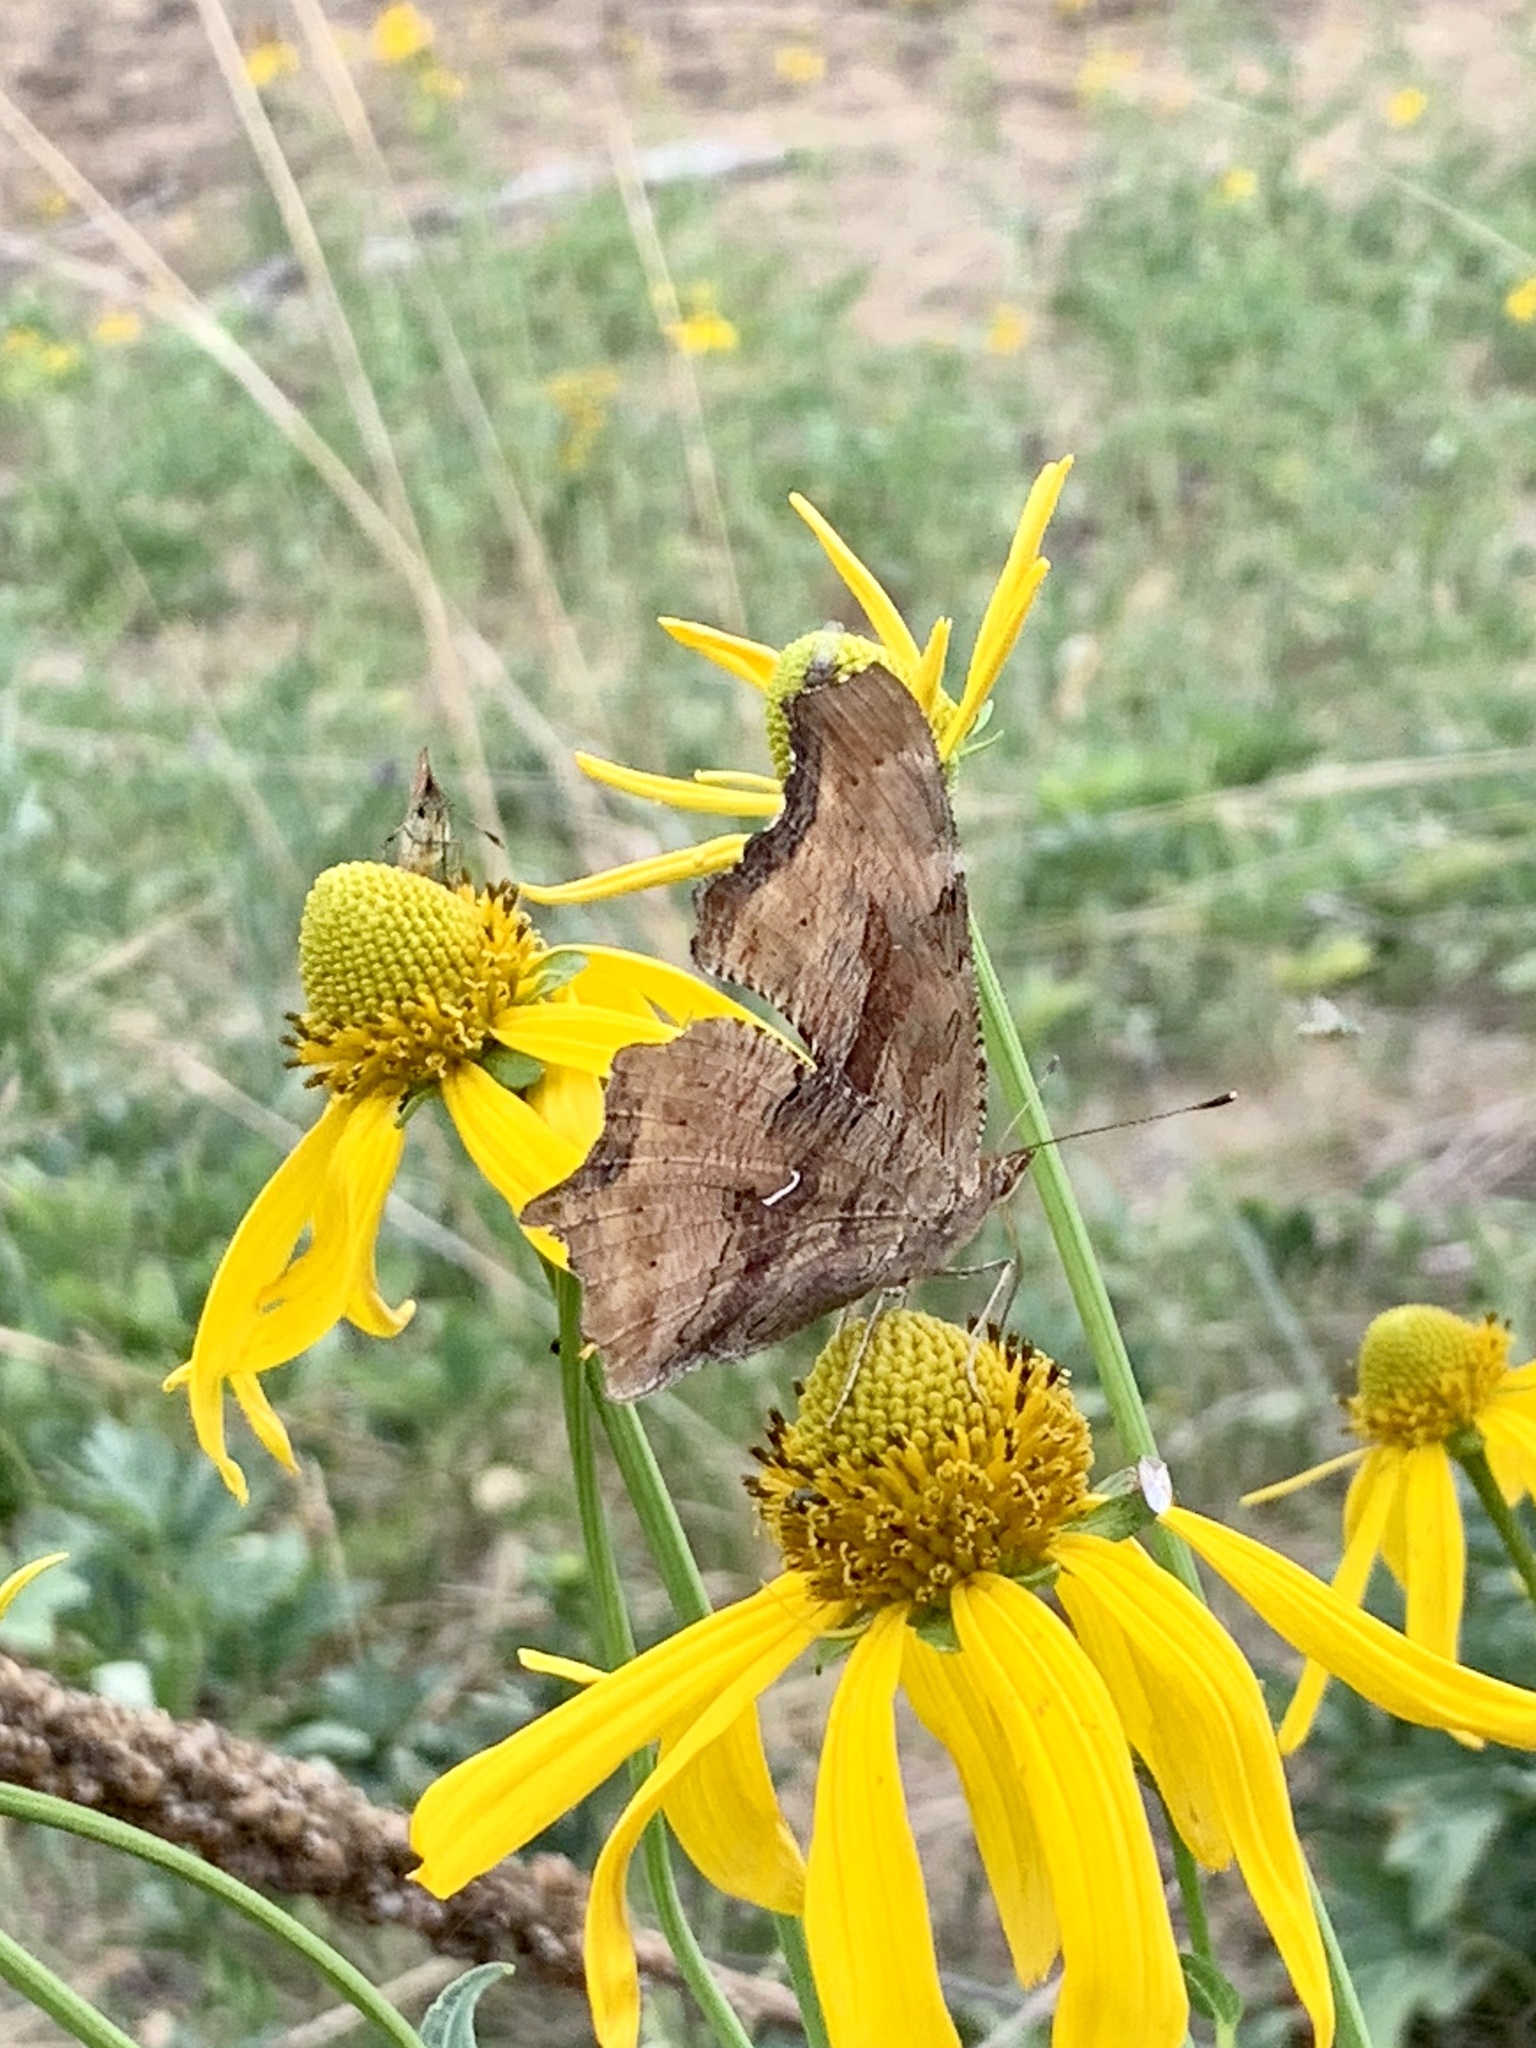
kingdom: Animalia
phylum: Arthropoda
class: Insecta
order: Lepidoptera
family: Nymphalidae
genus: Polygonia
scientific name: Polygonia satyrus
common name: Satyr angle wing
